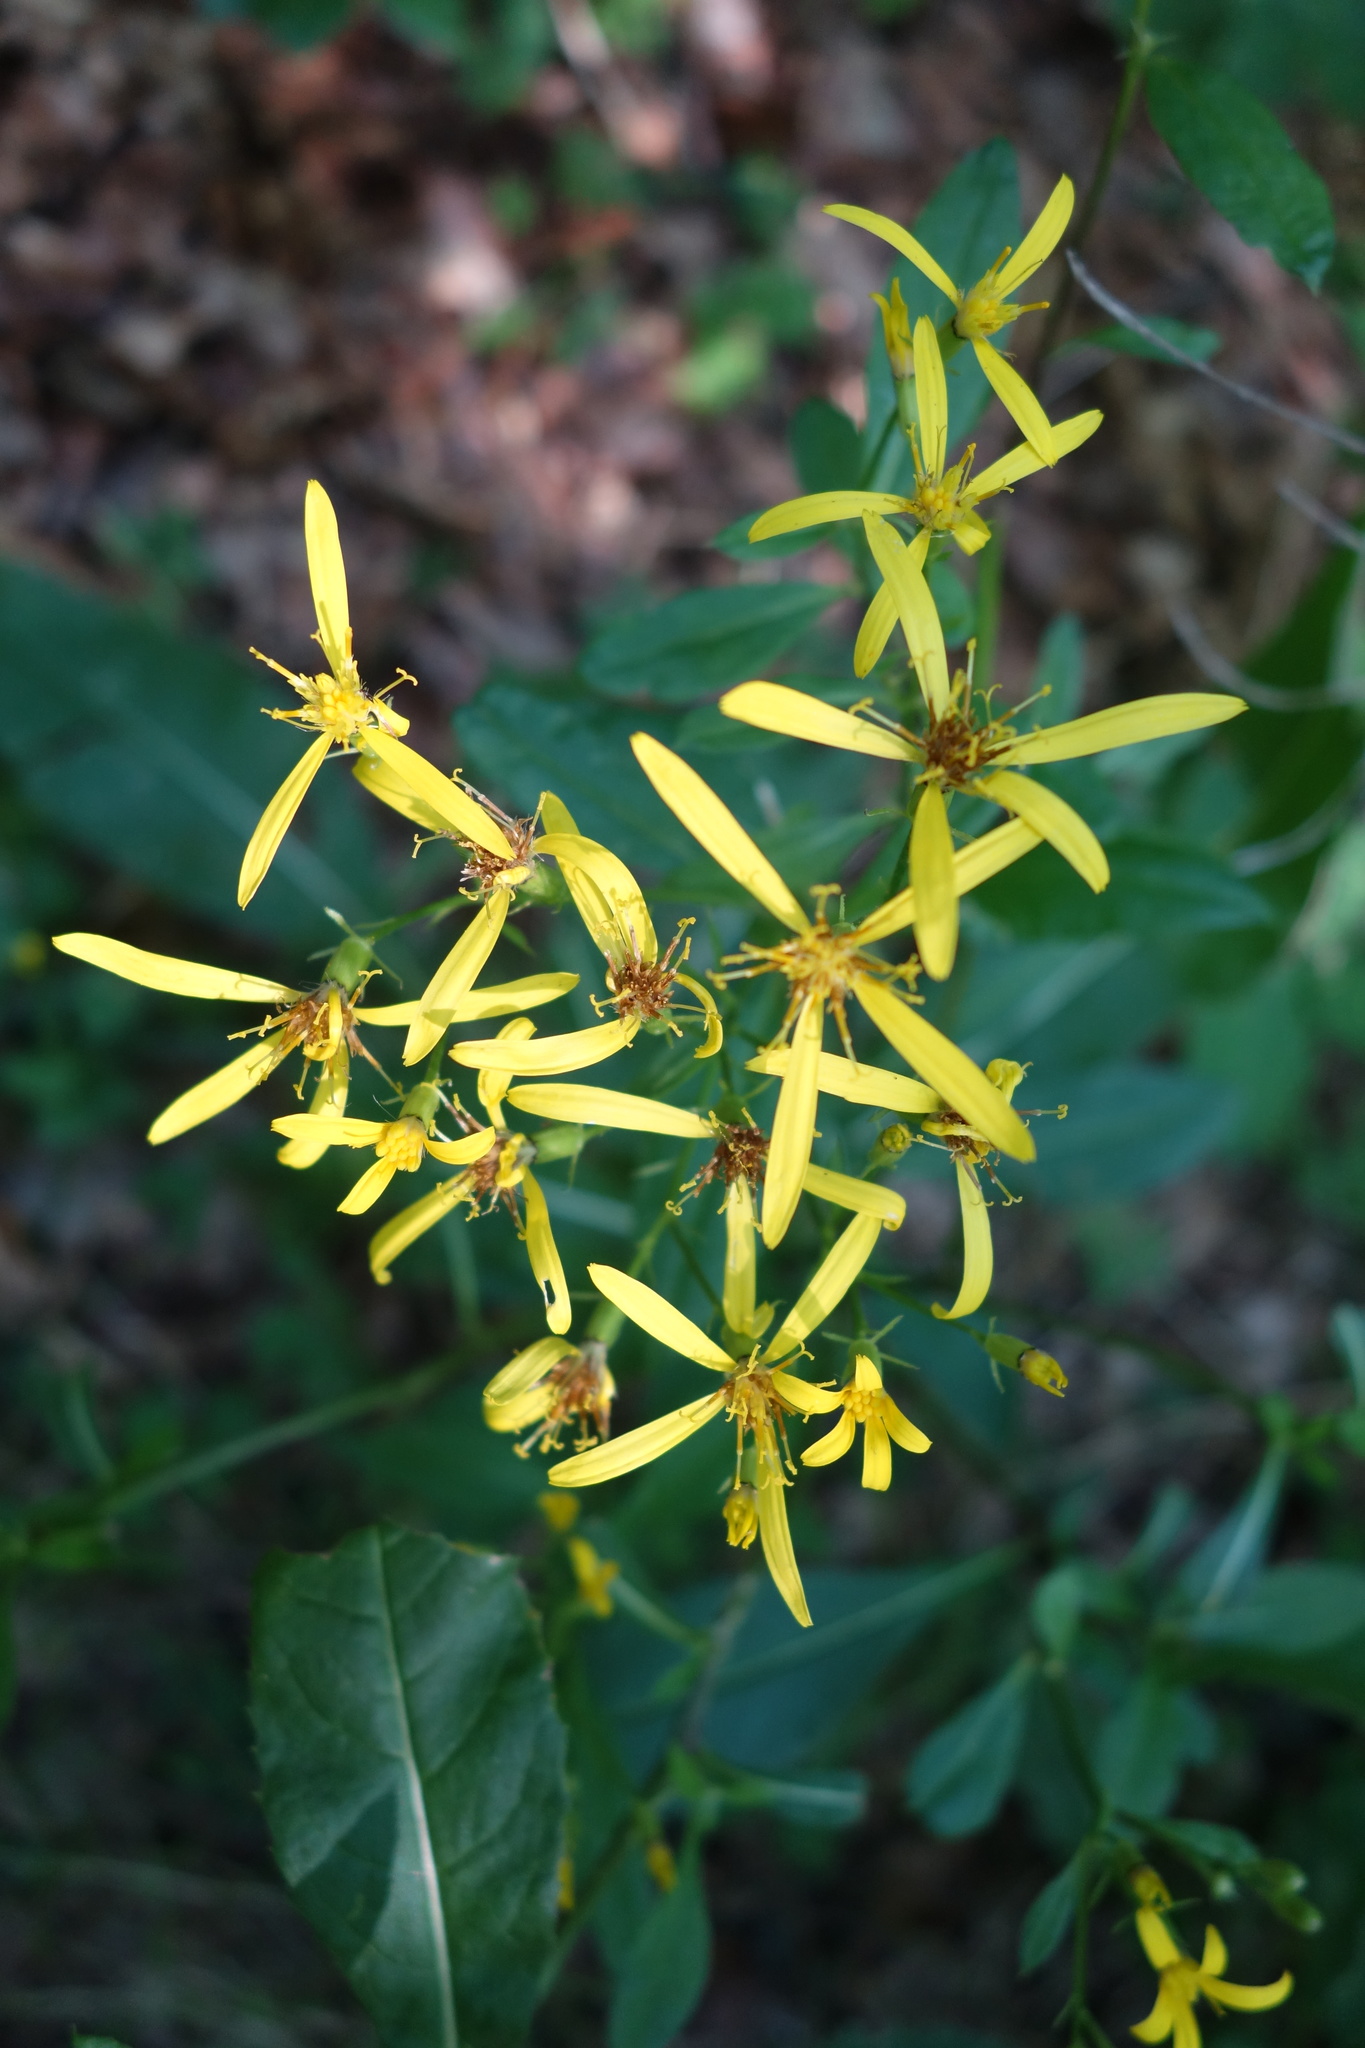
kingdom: Plantae
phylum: Tracheophyta
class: Magnoliopsida
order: Asterales
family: Asteraceae
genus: Senecio
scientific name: Senecio ovatus
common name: Wood ragwort
